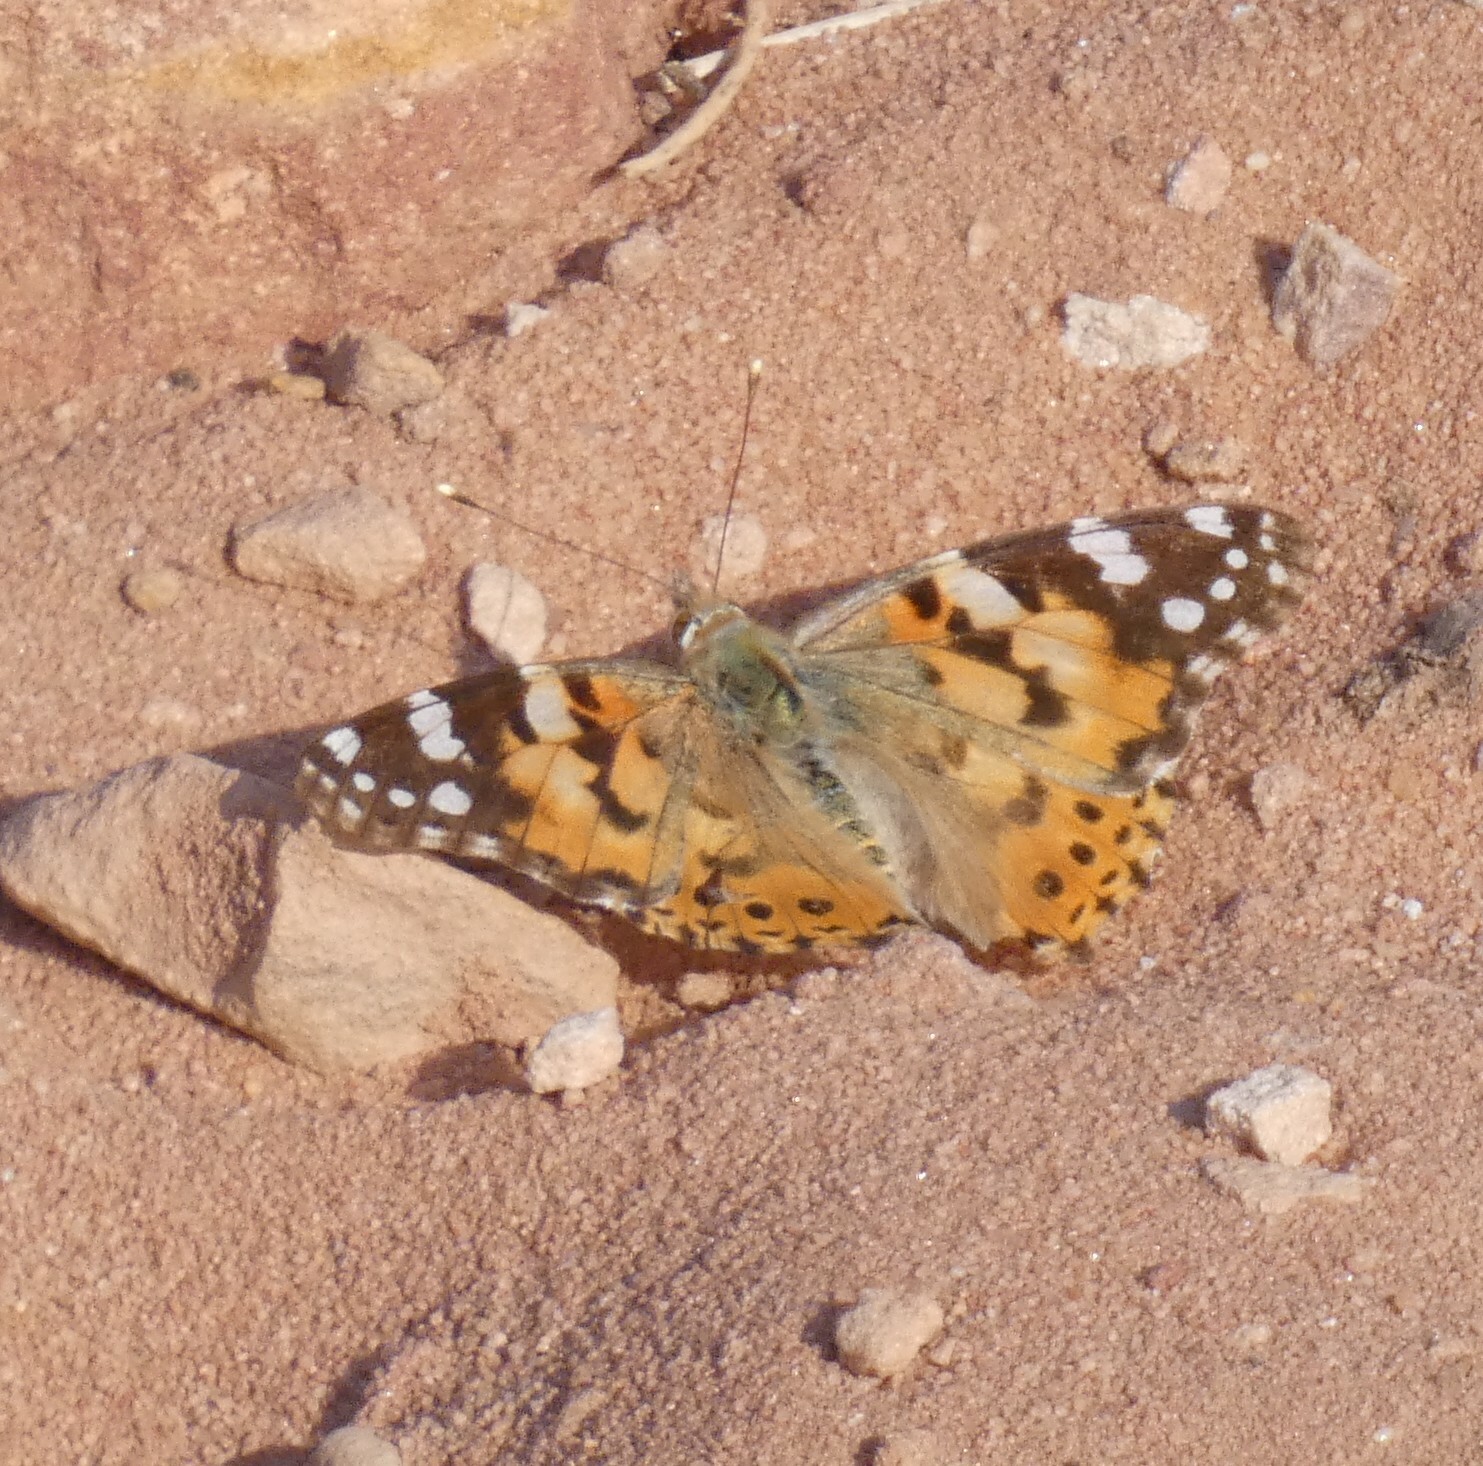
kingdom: Animalia
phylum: Arthropoda
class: Insecta
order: Lepidoptera
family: Nymphalidae
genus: Vanessa
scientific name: Vanessa cardui
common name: Painted lady
